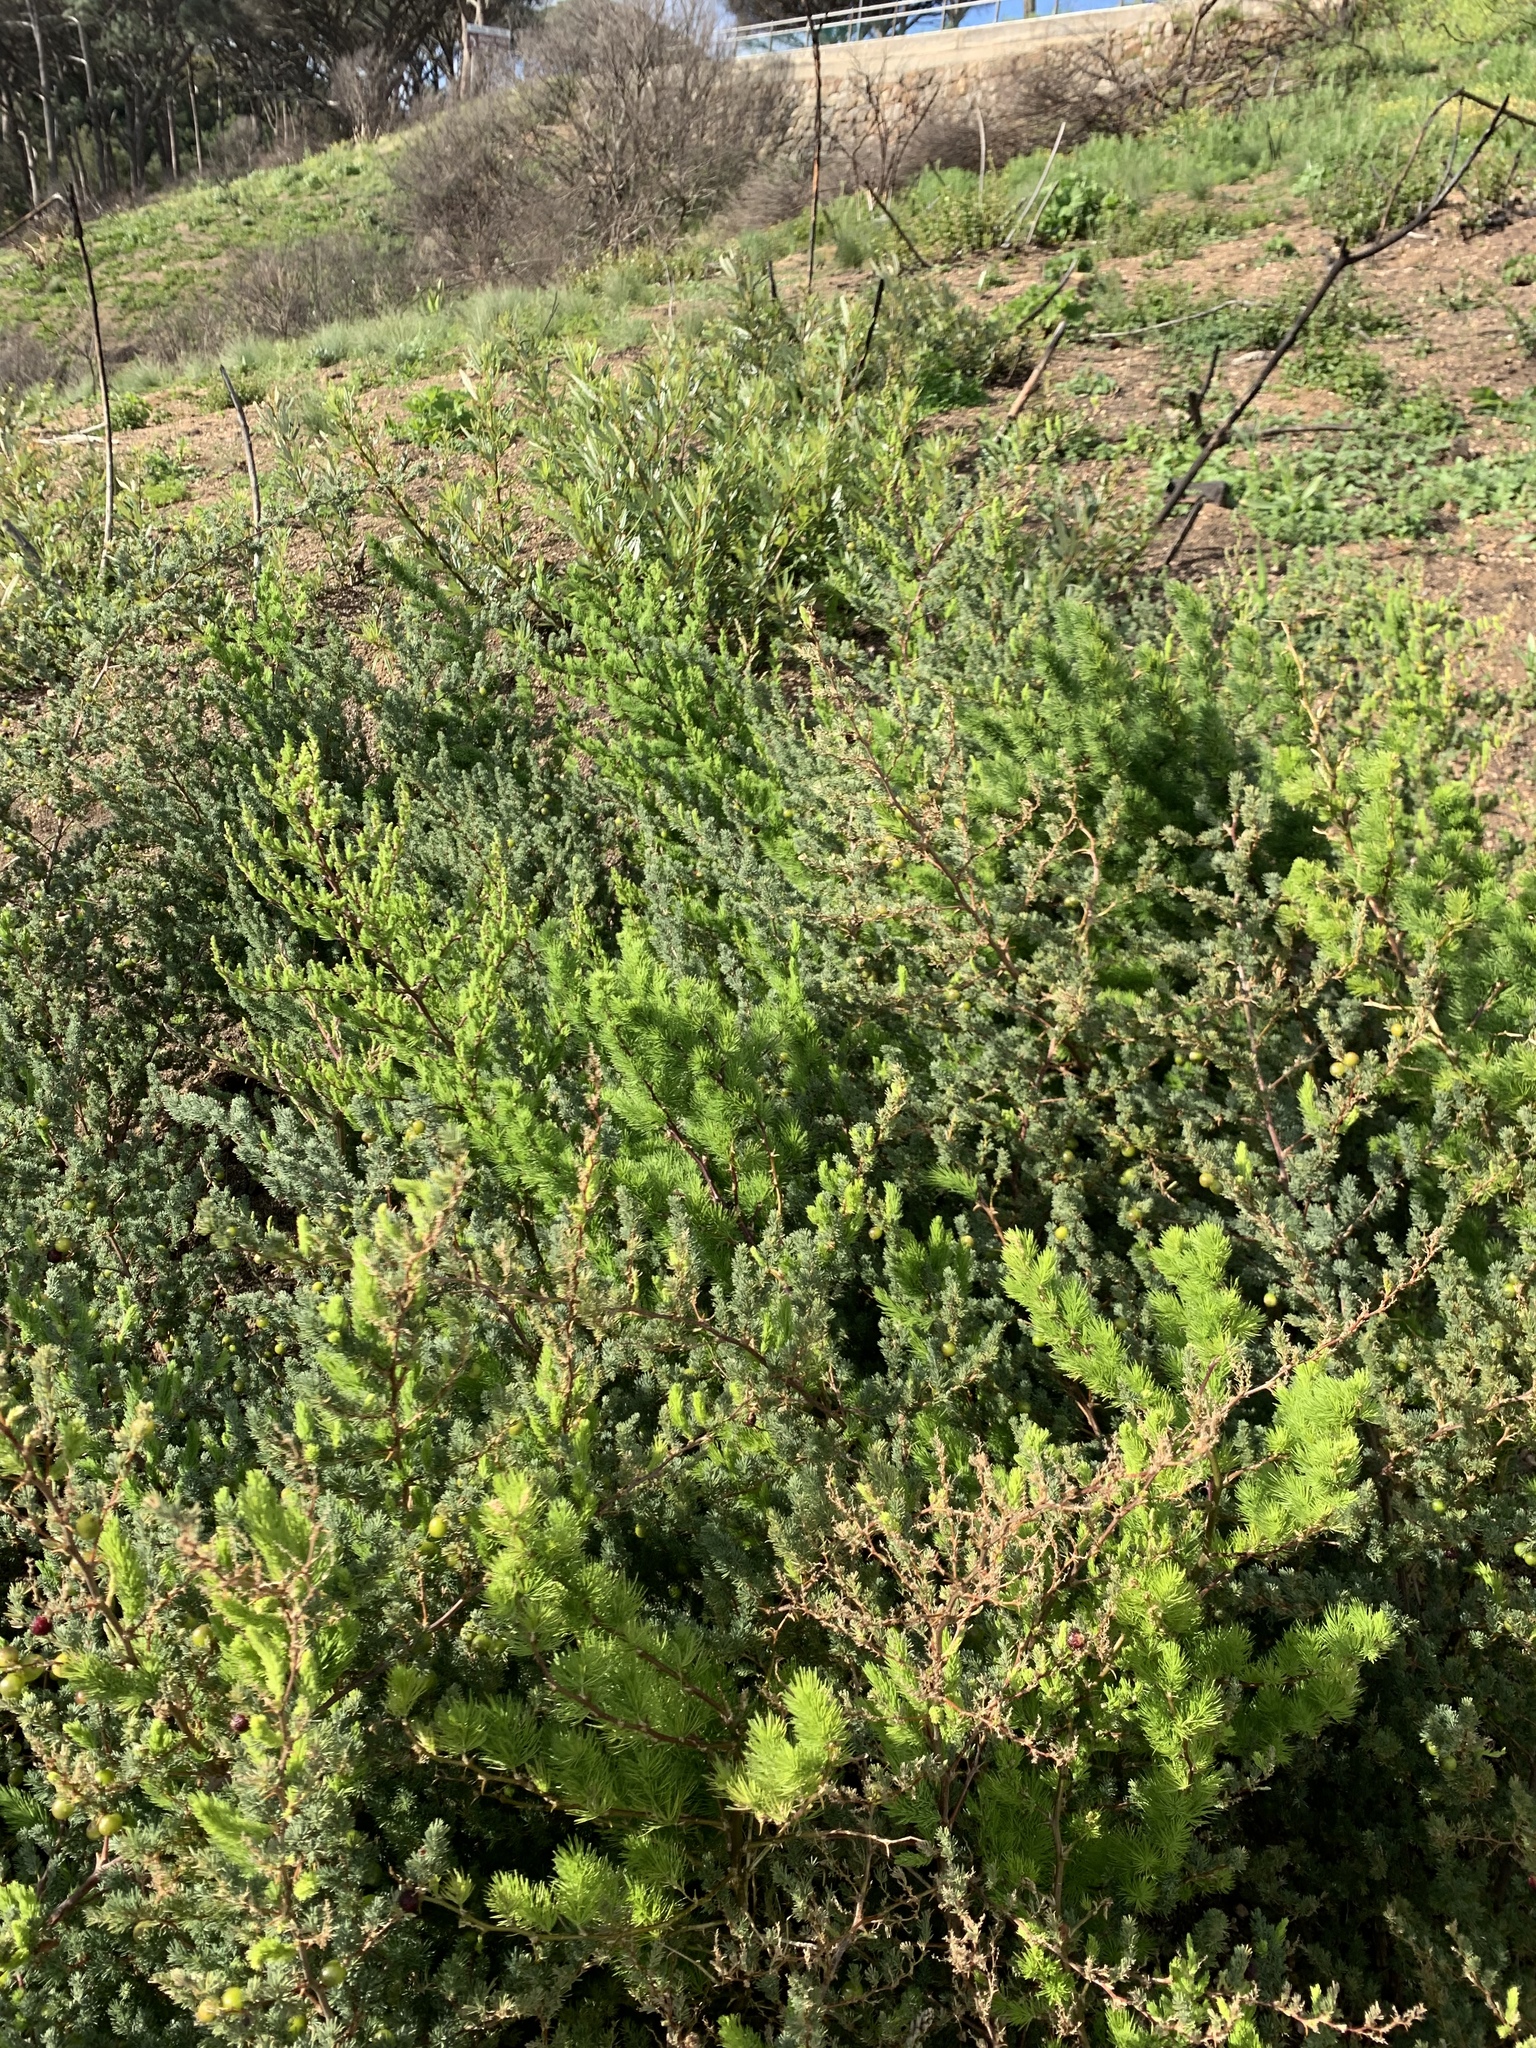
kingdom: Plantae
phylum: Tracheophyta
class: Liliopsida
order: Asparagales
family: Asparagaceae
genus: Asparagus
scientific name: Asparagus rubicundus
